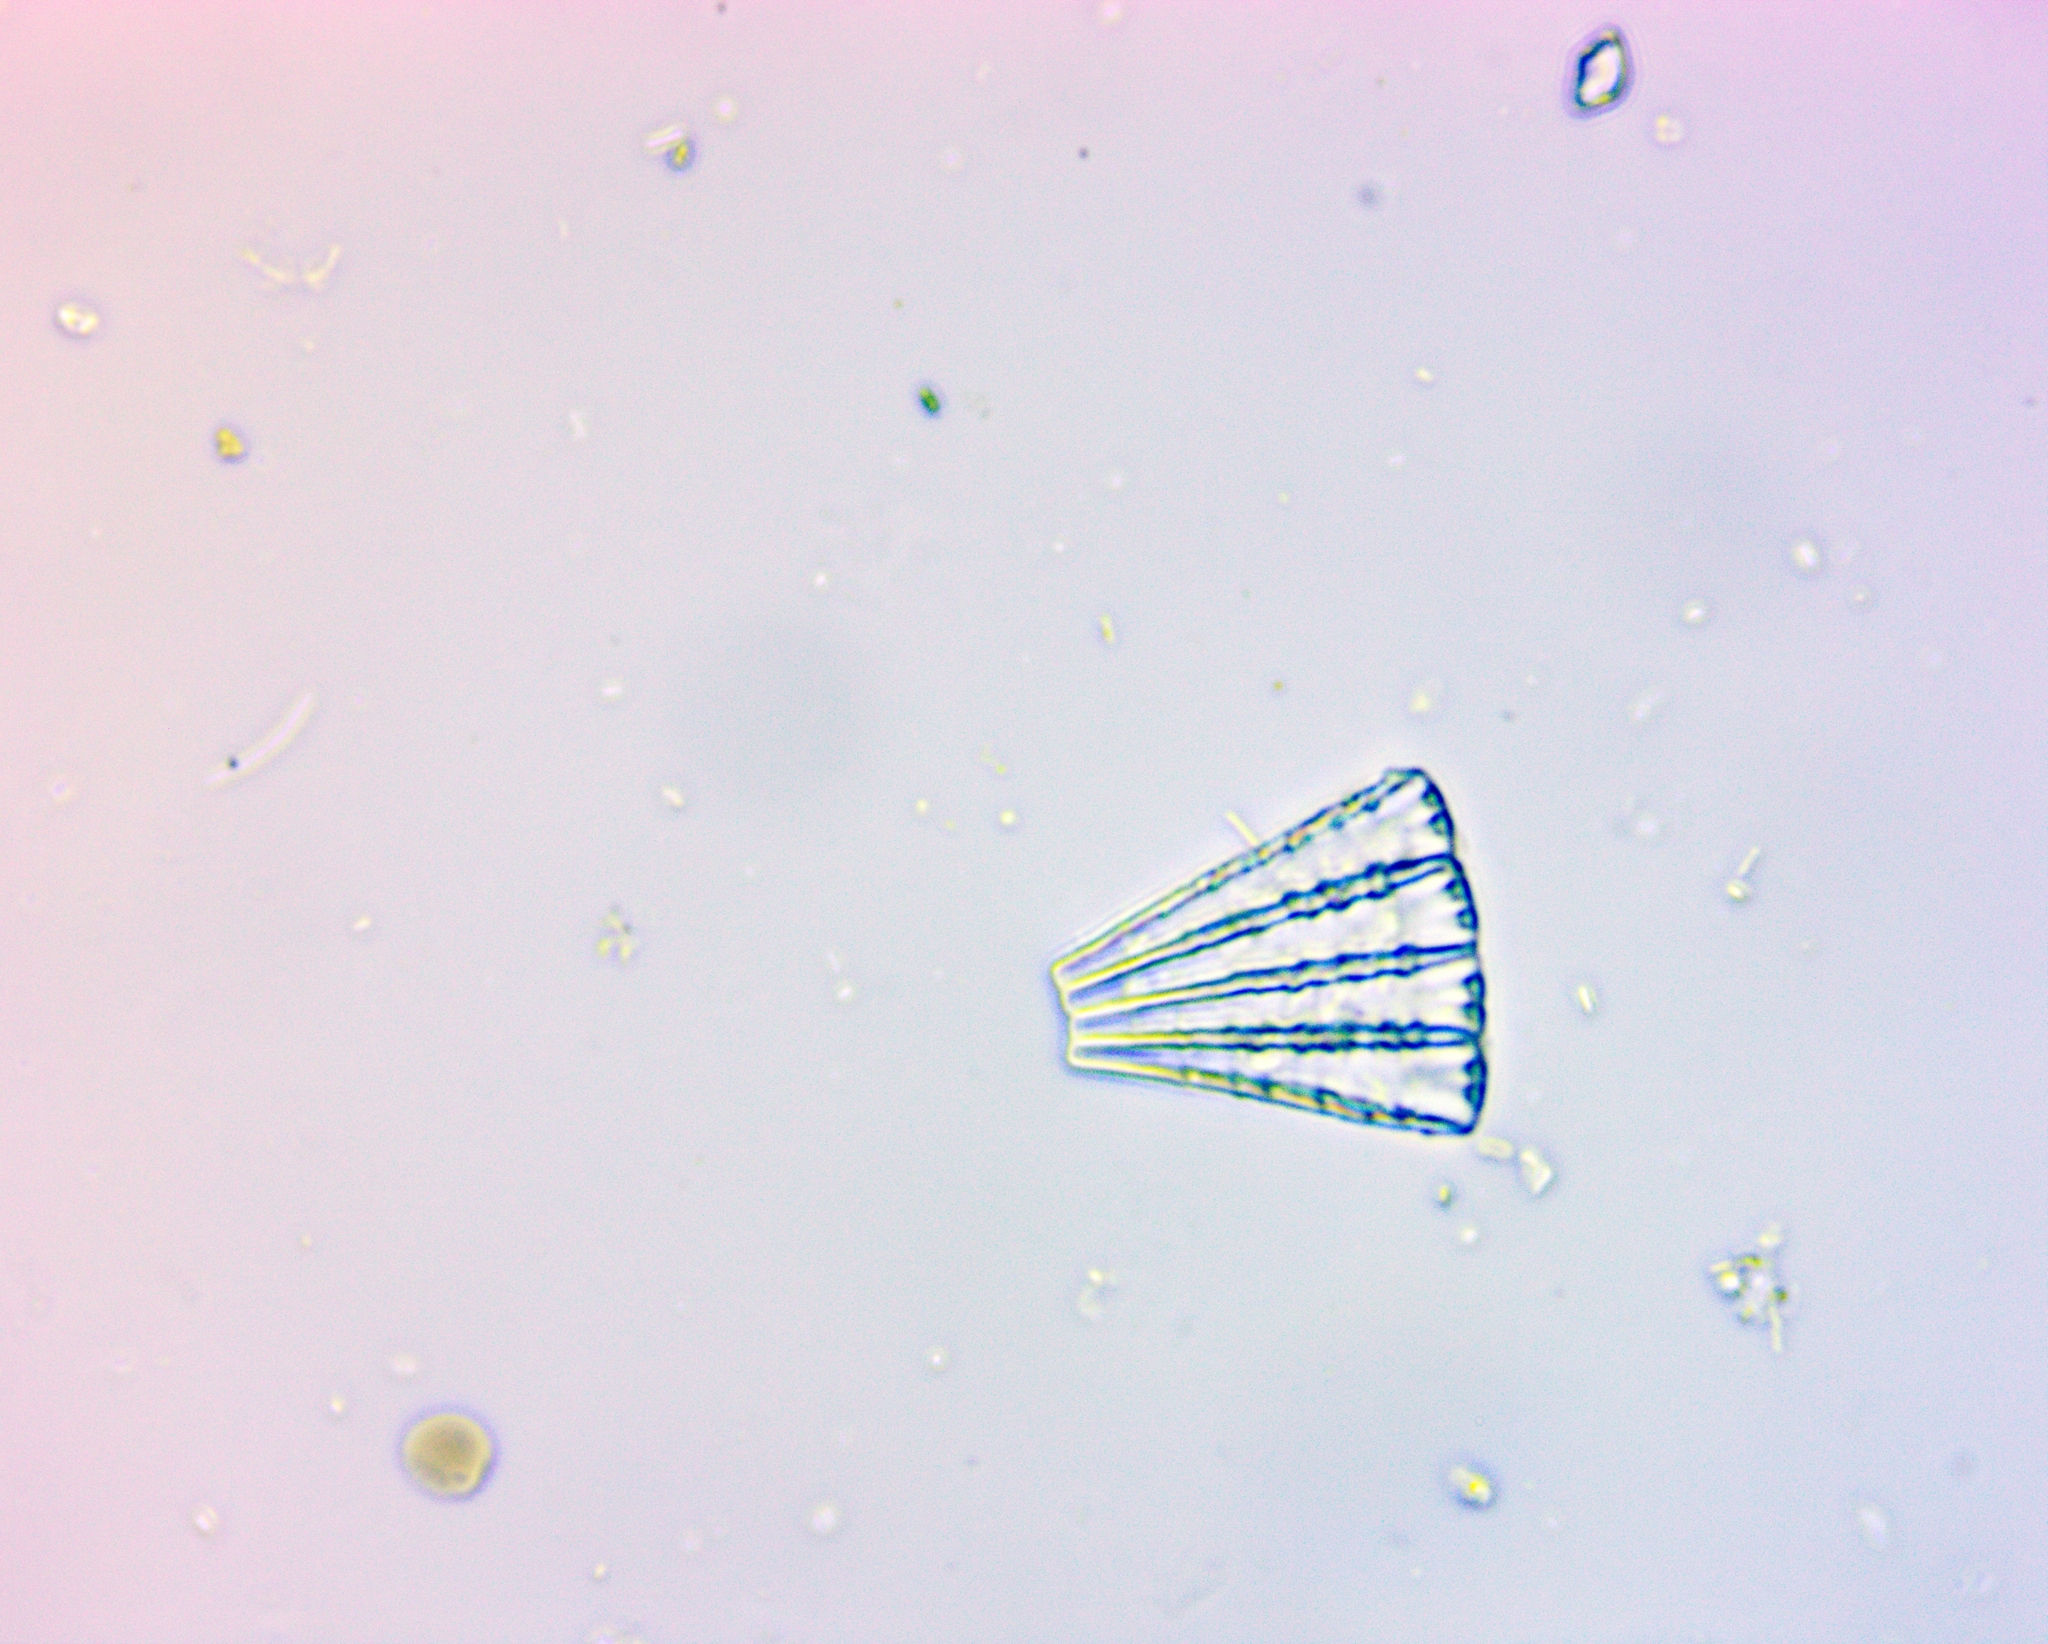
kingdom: Chromista
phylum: Ochrophyta
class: Bacillariophyceae
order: Tabellariales
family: Tabellariaceae
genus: Meridion
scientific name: Meridion
